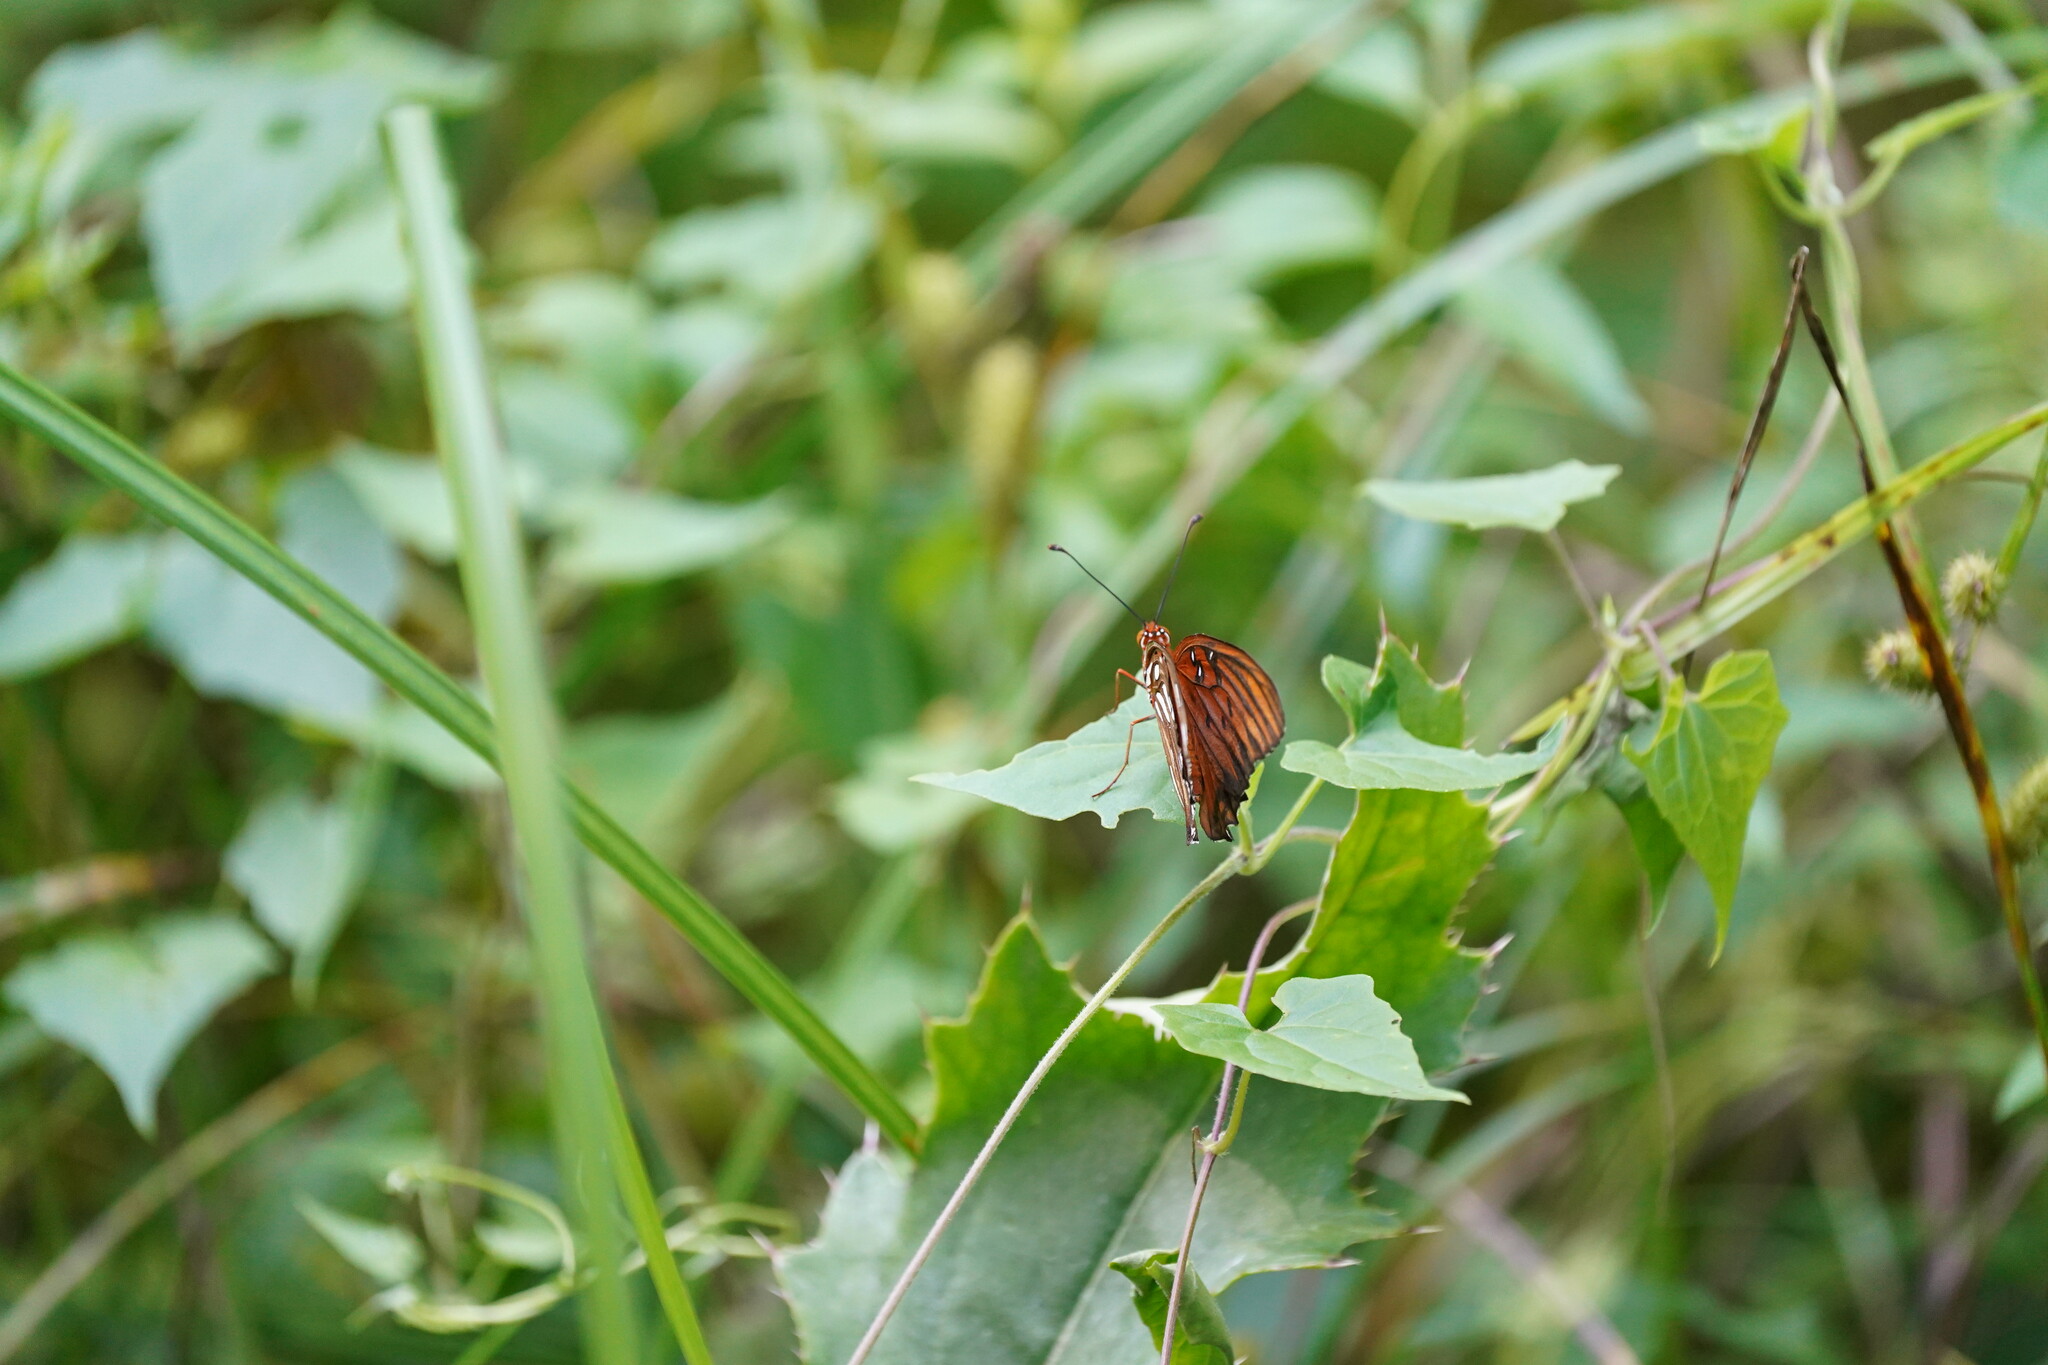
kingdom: Animalia
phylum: Arthropoda
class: Insecta
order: Lepidoptera
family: Nymphalidae
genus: Dione
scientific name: Dione vanillae
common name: Gulf fritillary
